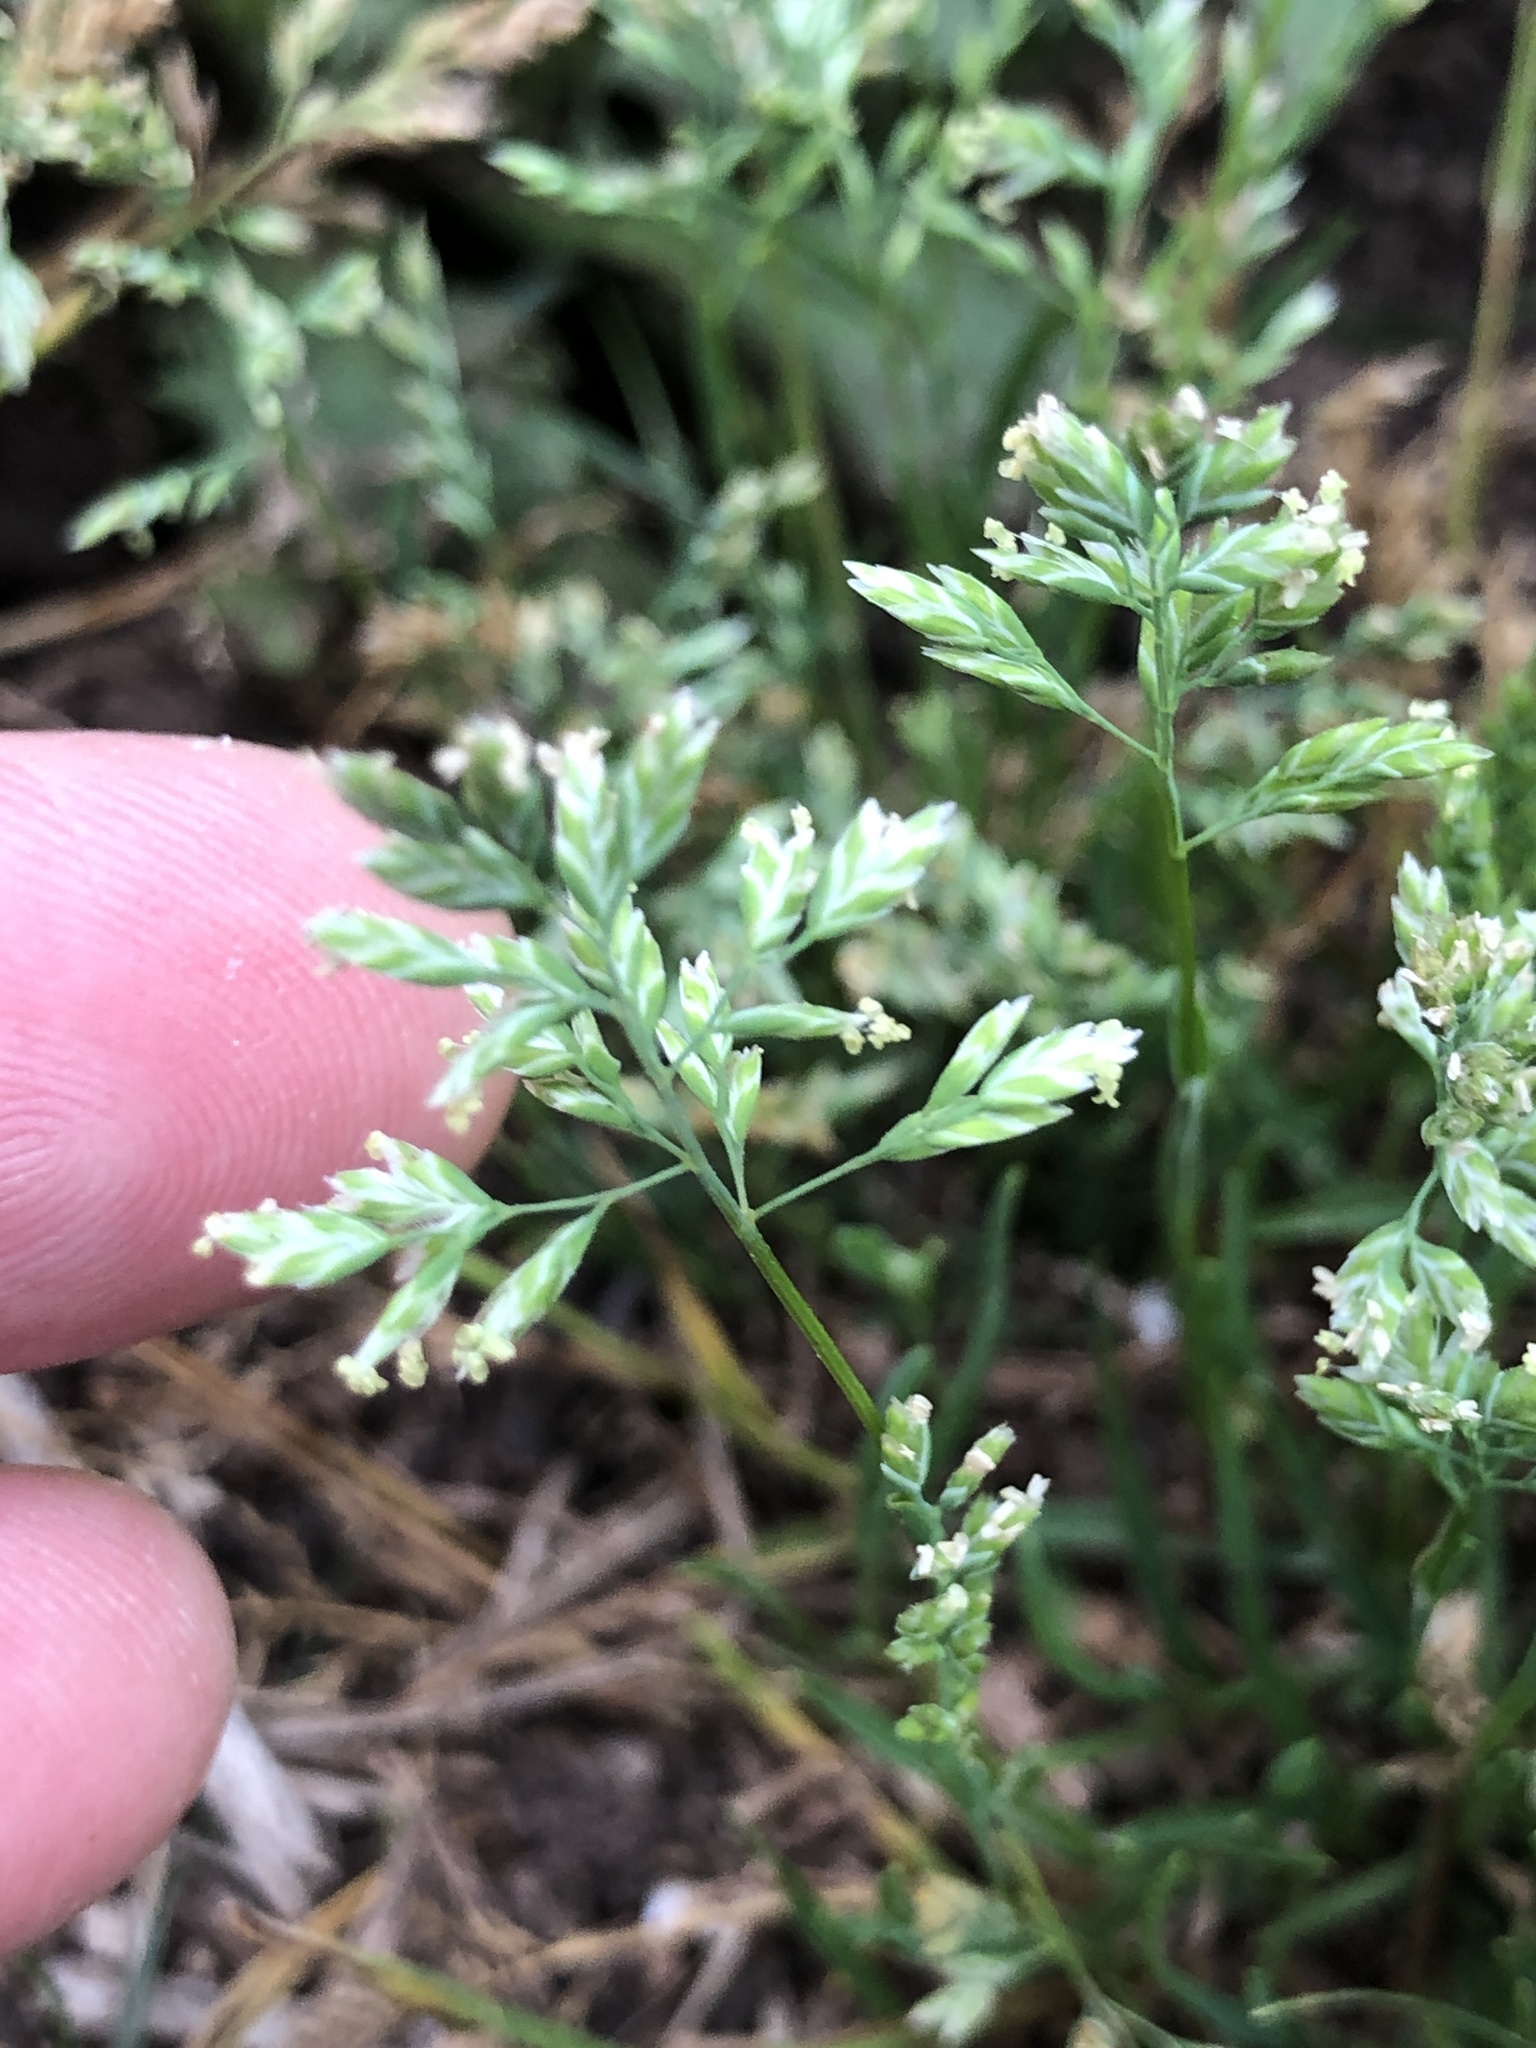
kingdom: Plantae
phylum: Tracheophyta
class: Liliopsida
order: Poales
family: Poaceae
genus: Poa
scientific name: Poa annua
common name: Annual bluegrass
